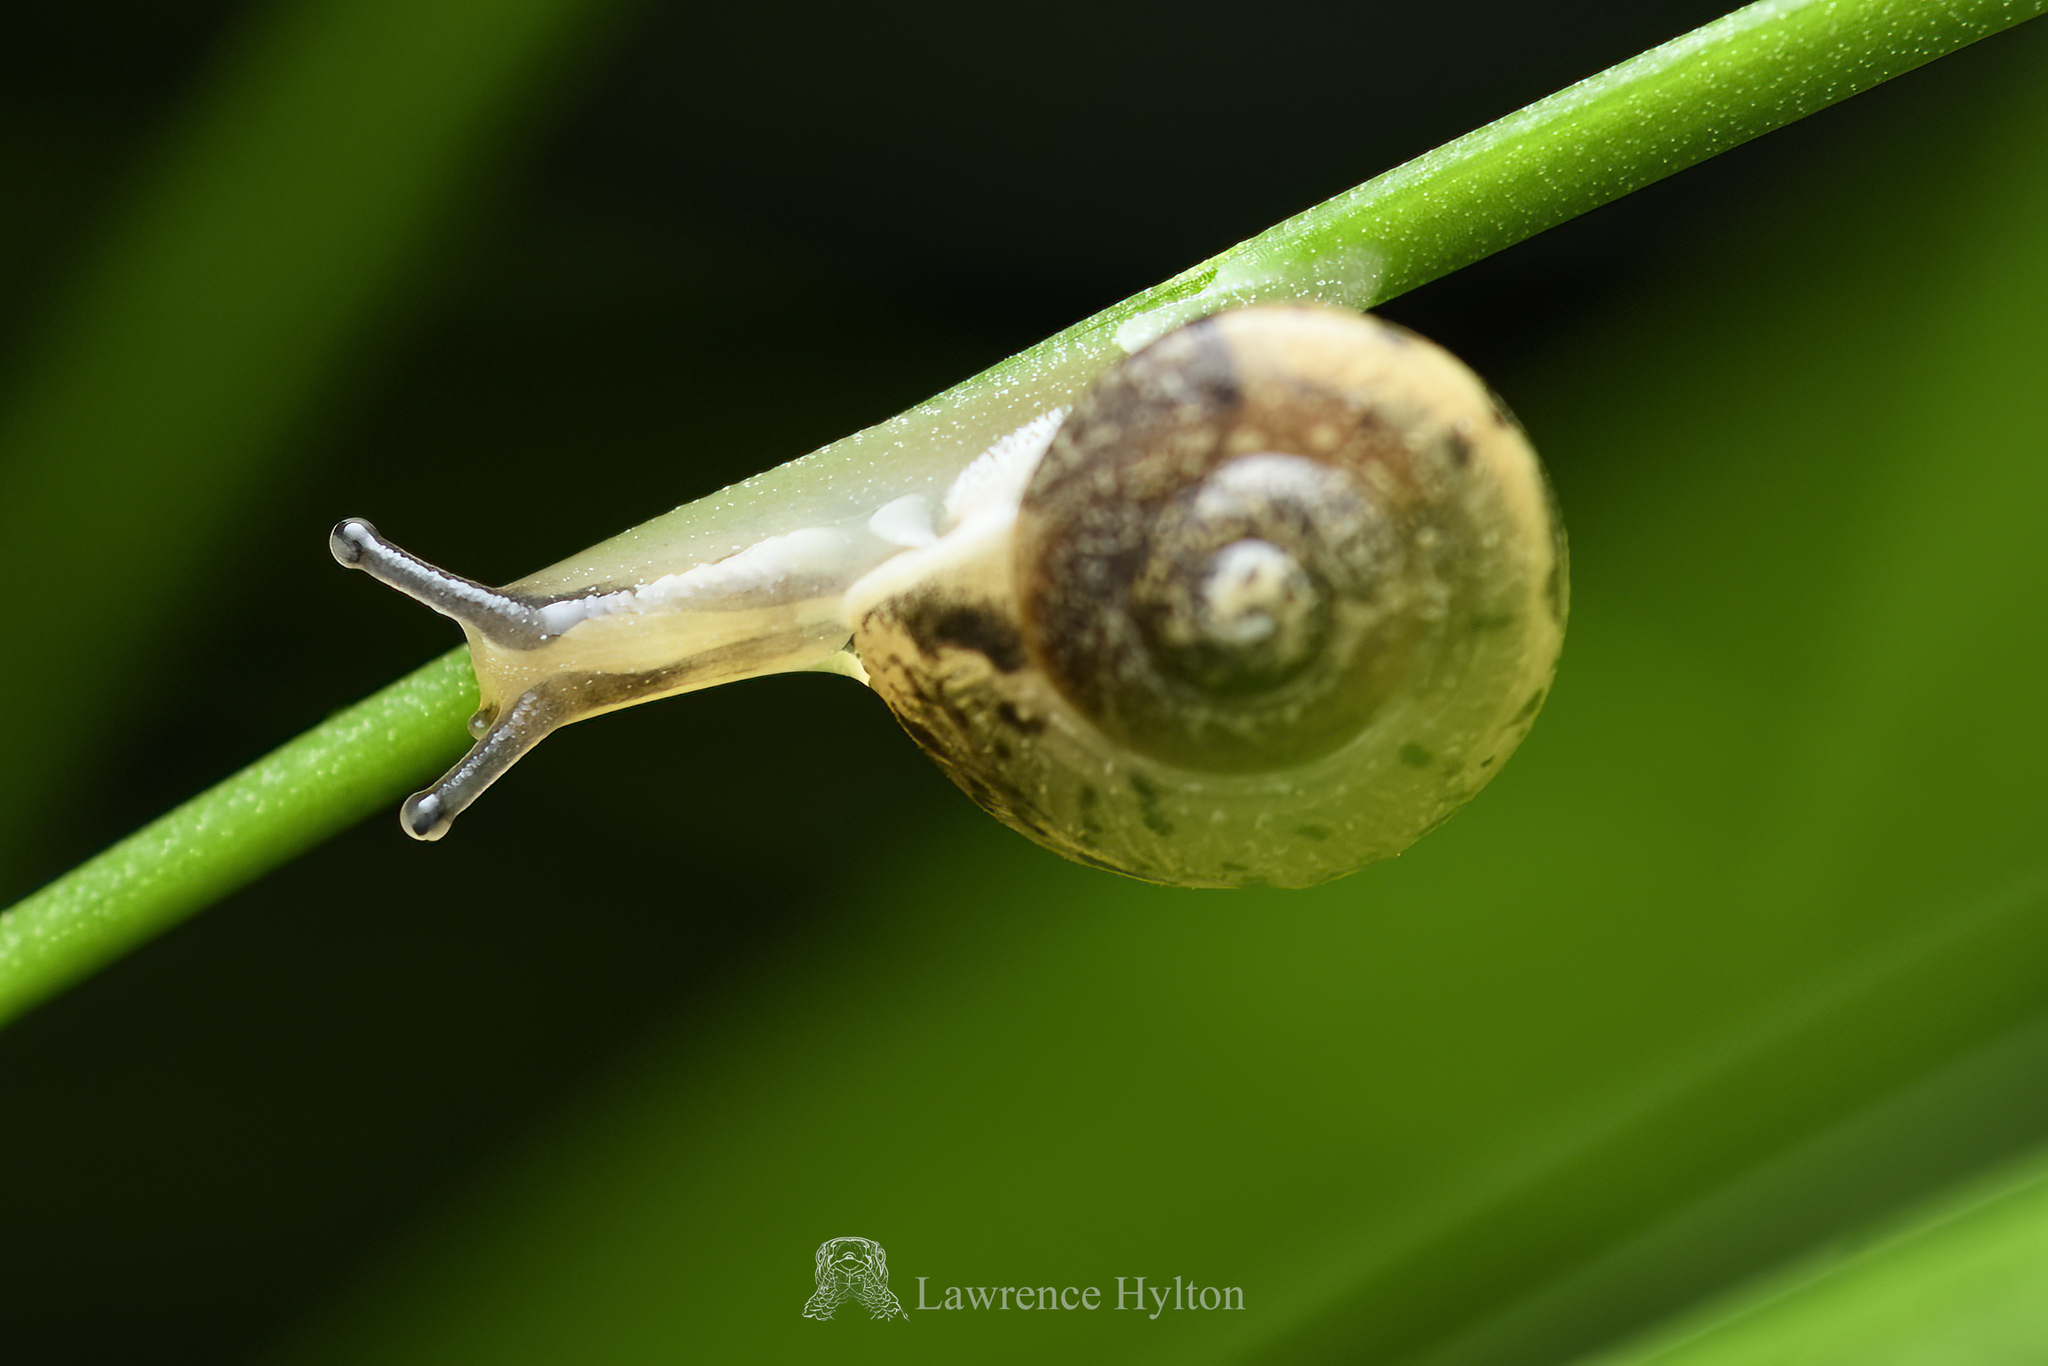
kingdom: Animalia
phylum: Mollusca
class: Gastropoda
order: Stylommatophora
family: Camaenidae
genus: Bradybaena
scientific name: Bradybaena similaris
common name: Asian trampsnail
